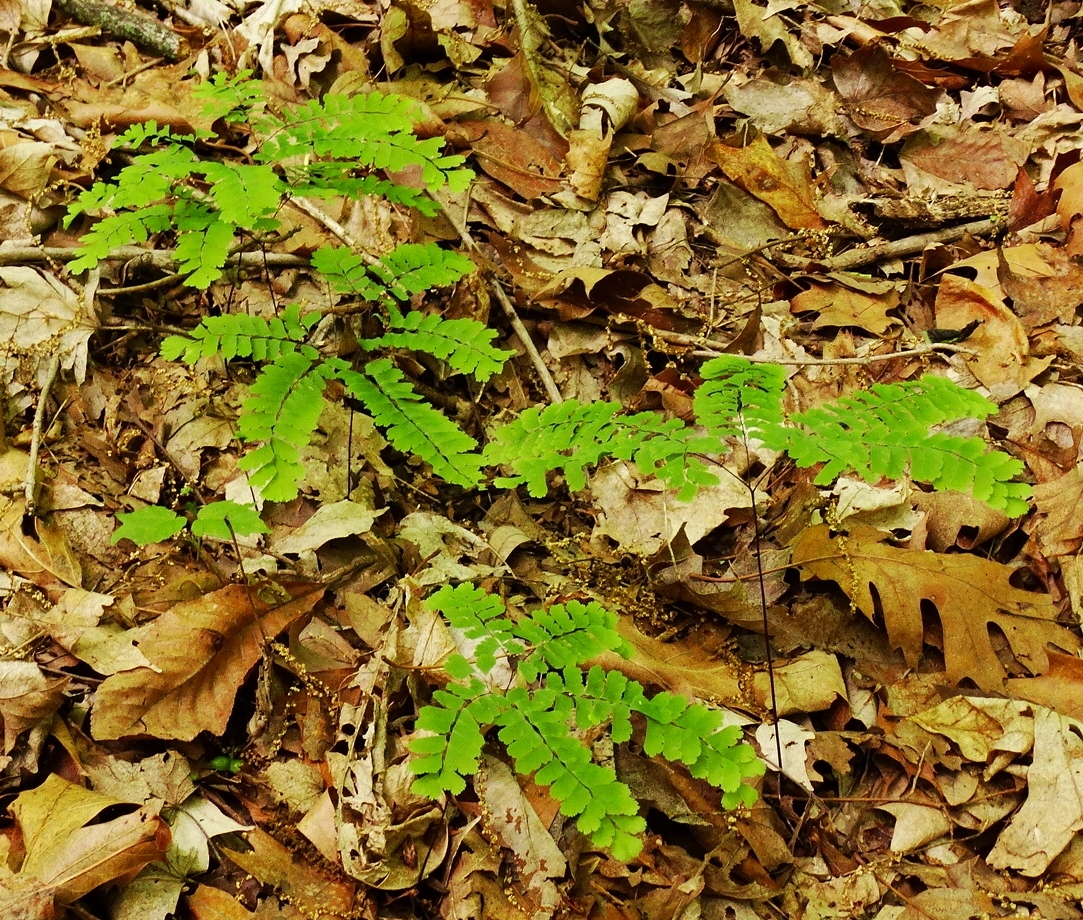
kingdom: Plantae
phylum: Tracheophyta
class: Polypodiopsida
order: Polypodiales
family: Pteridaceae
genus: Adiantum
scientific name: Adiantum pedatum
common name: Five-finger fern
